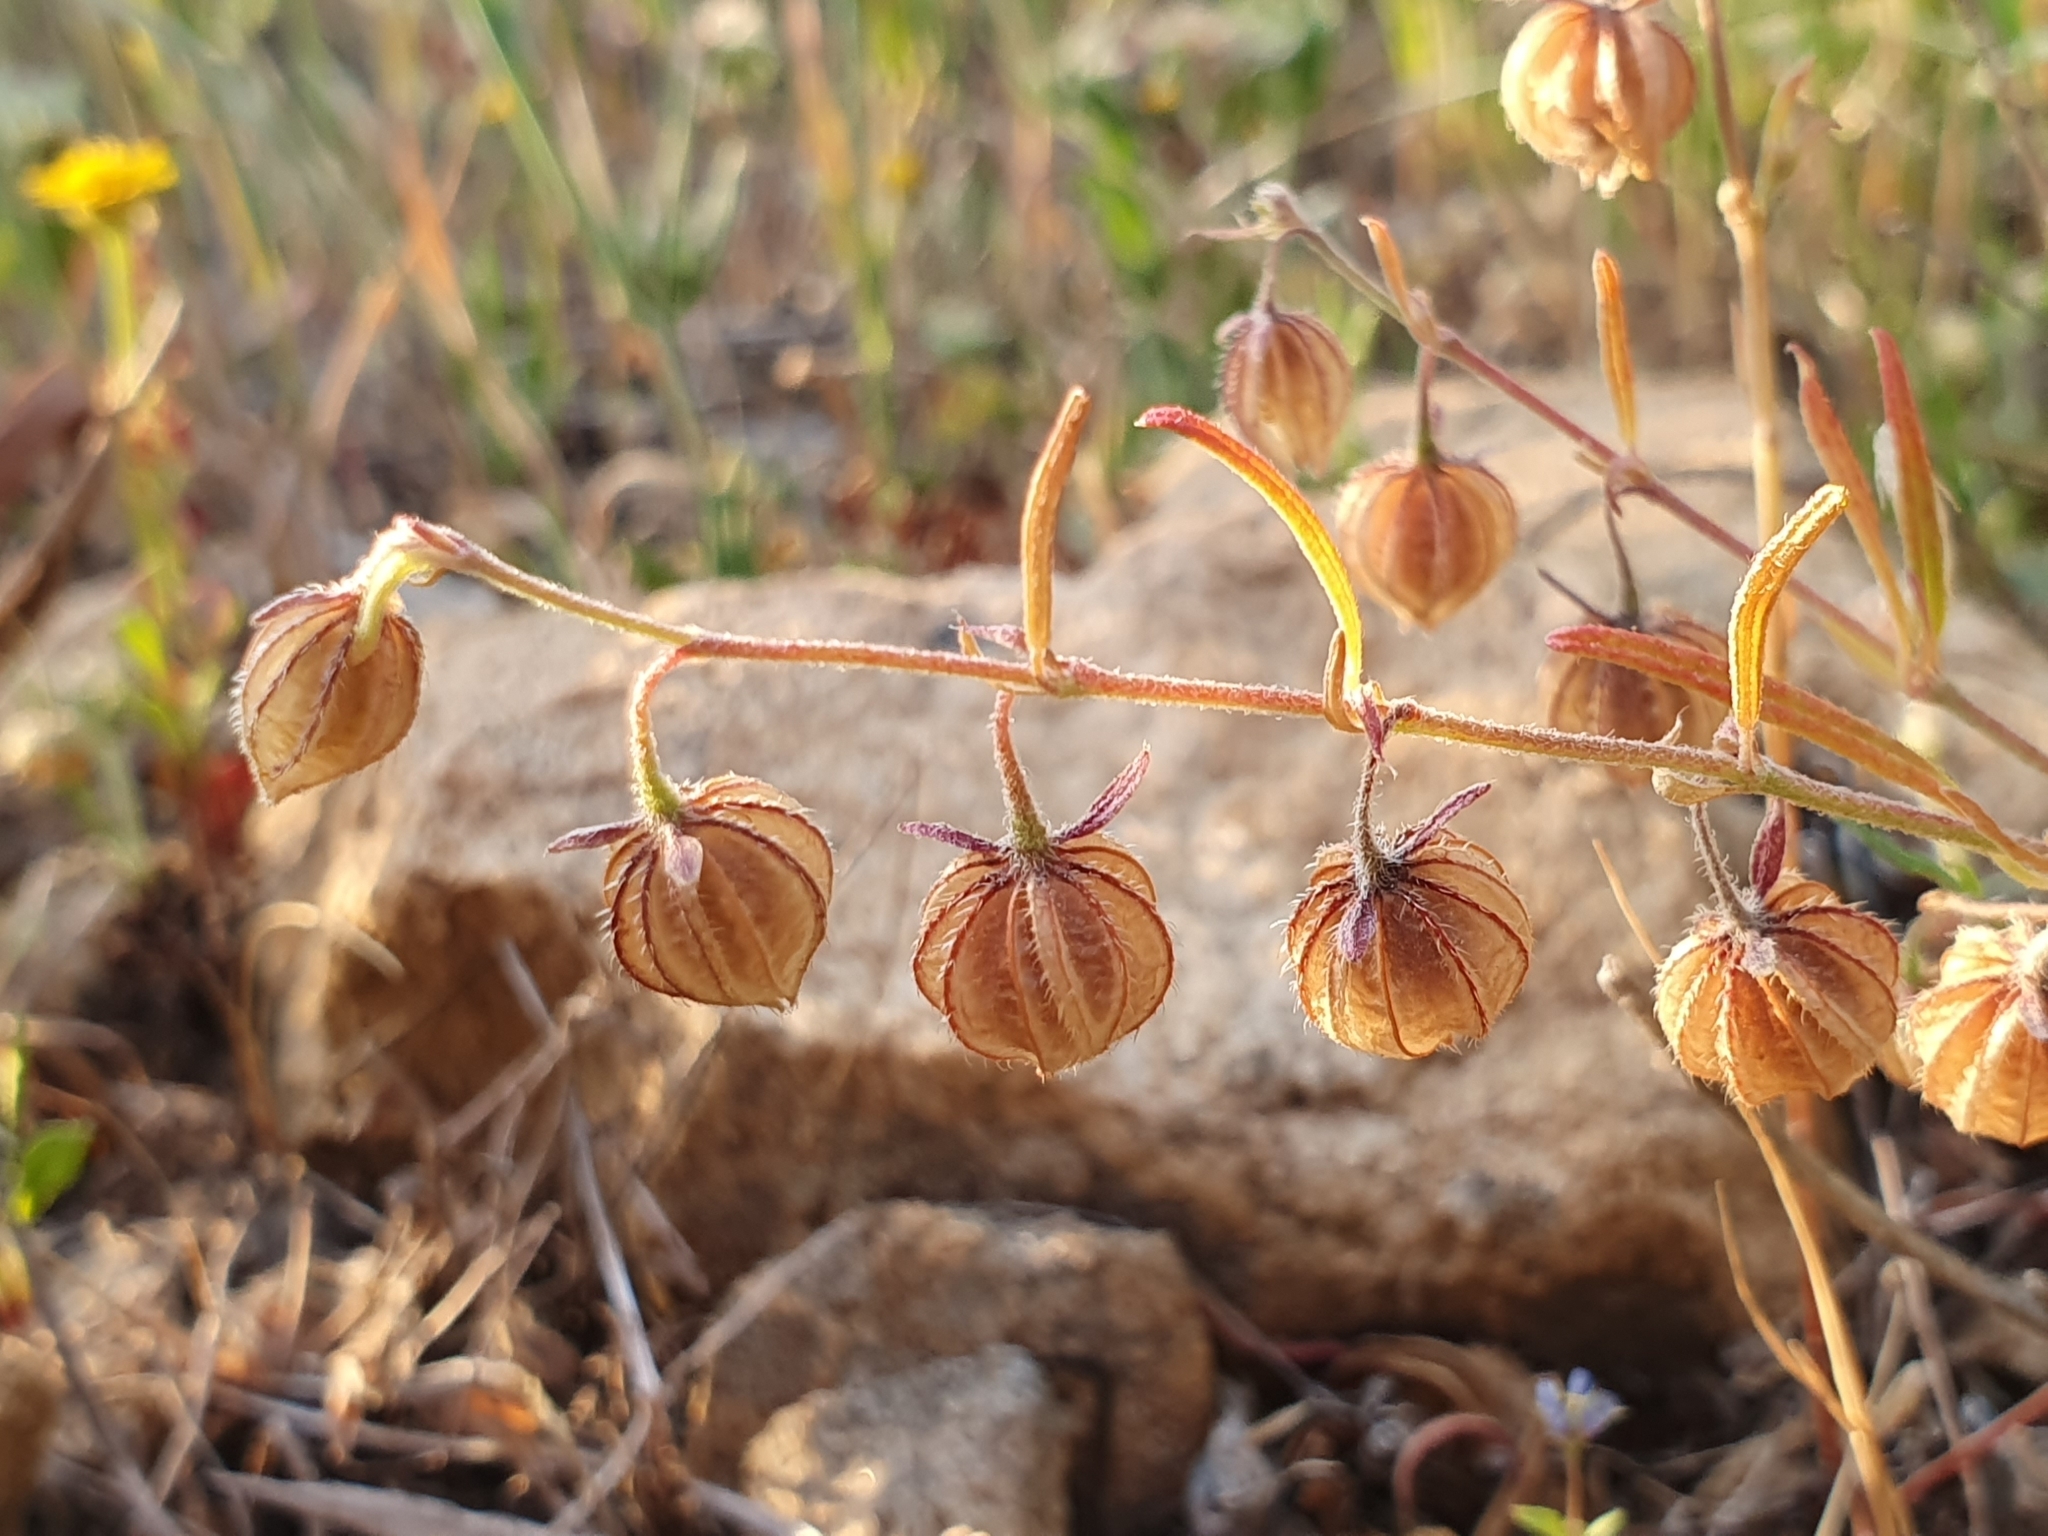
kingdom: Plantae
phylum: Tracheophyta
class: Magnoliopsida
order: Malvales
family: Cistaceae
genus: Helianthemum
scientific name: Helianthemum aegyptiacum
